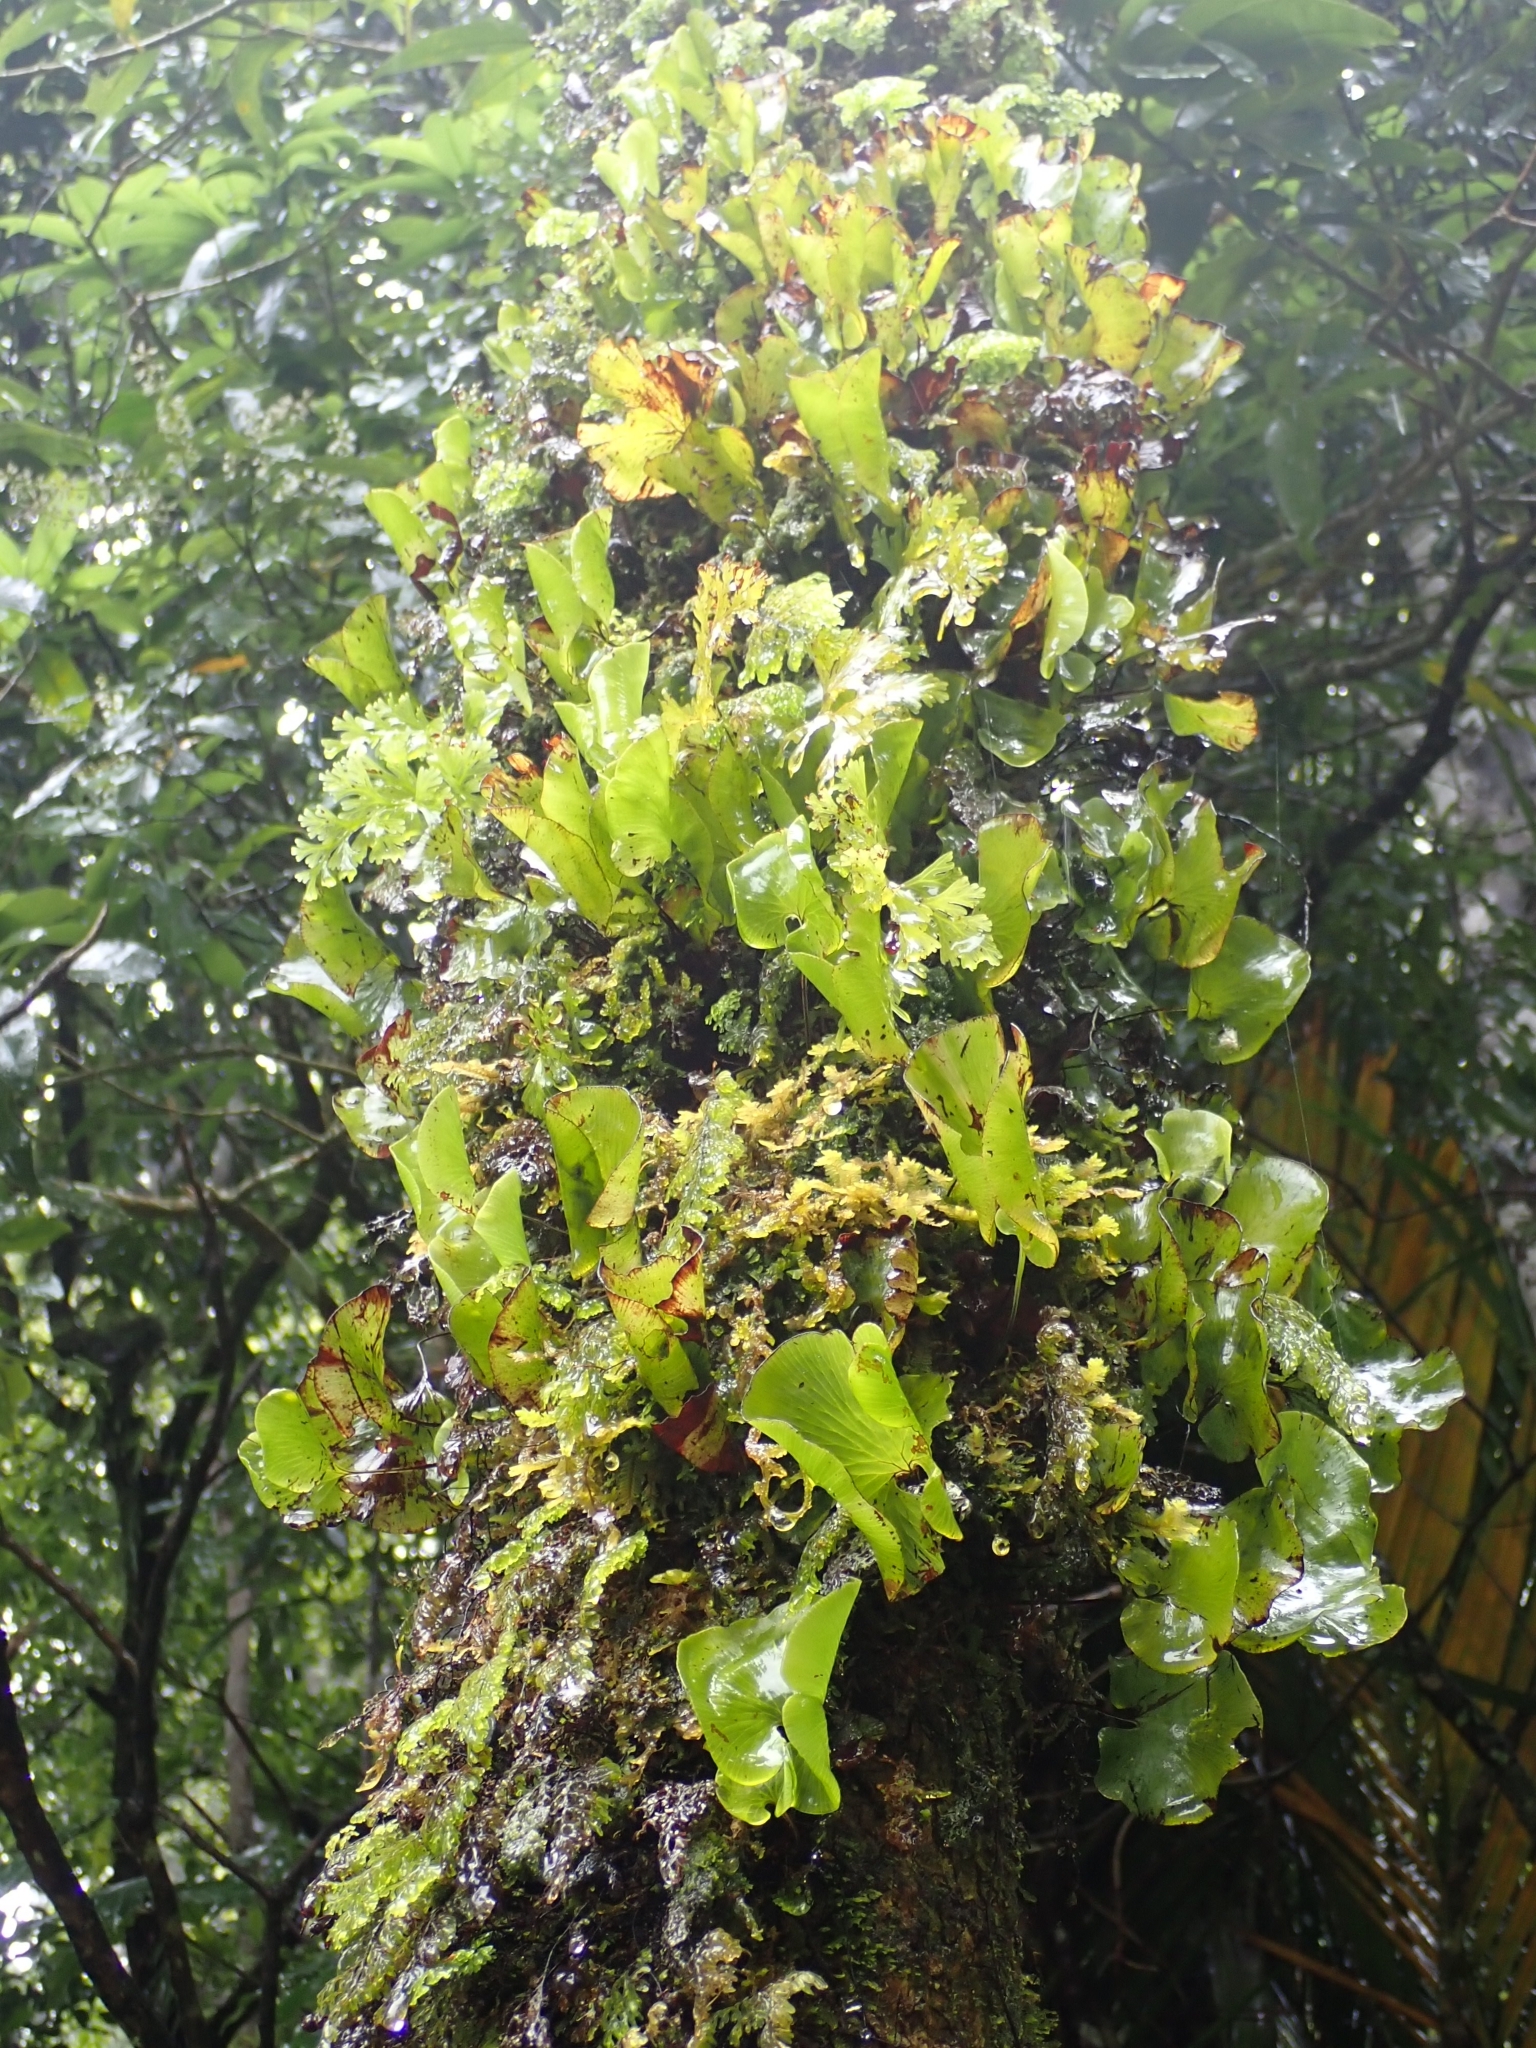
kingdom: Plantae
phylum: Tracheophyta
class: Polypodiopsida
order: Hymenophyllales
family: Hymenophyllaceae
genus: Hymenophyllum
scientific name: Hymenophyllum nephrophyllum
